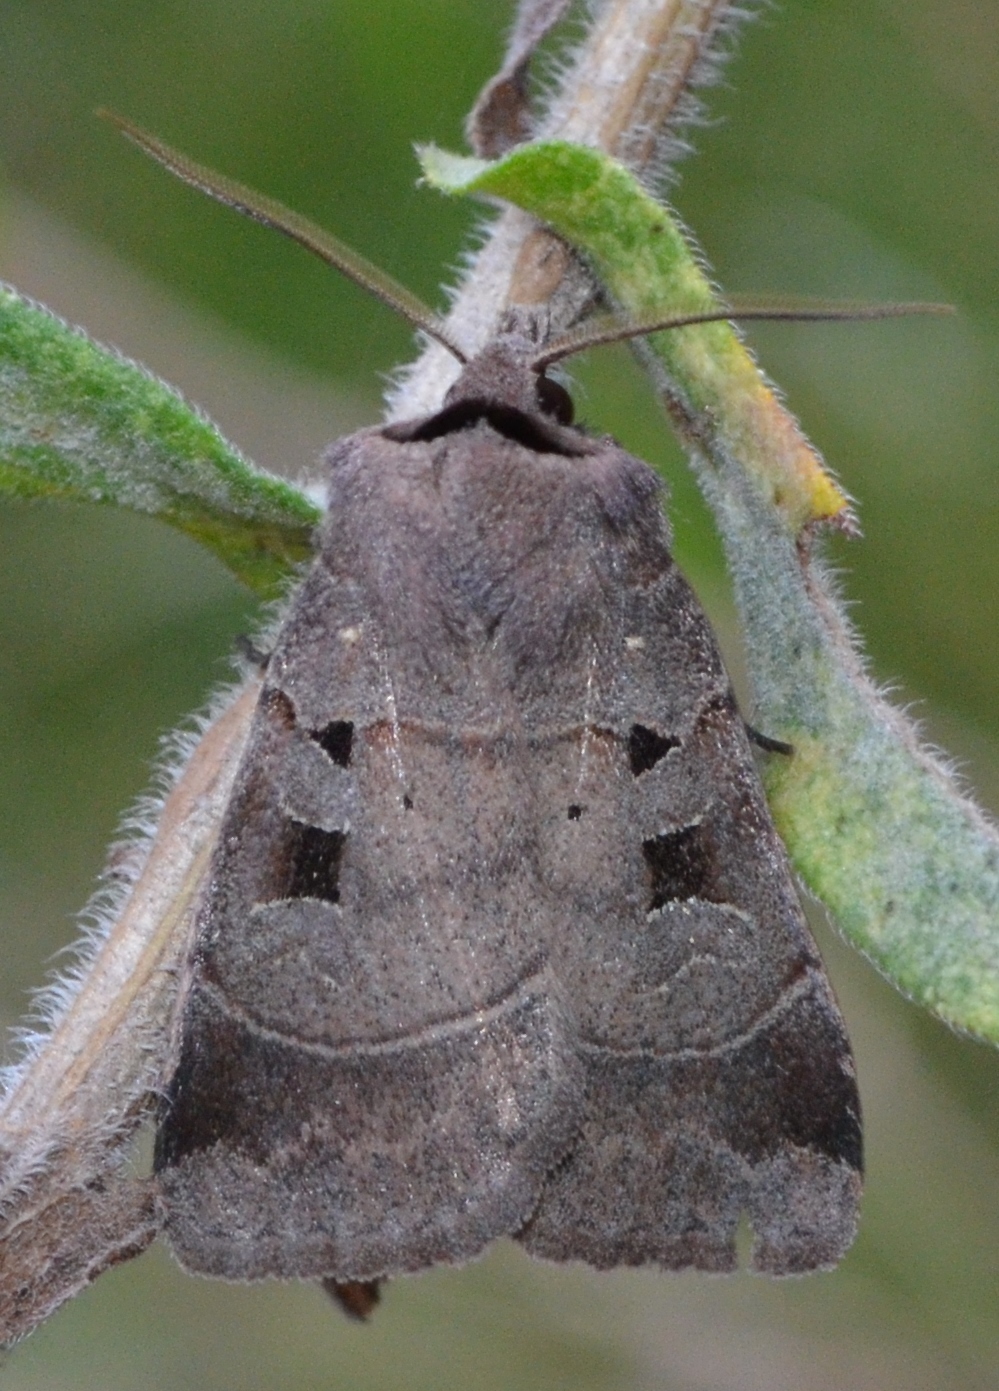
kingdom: Animalia
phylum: Arthropoda
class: Insecta
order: Lepidoptera
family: Noctuidae
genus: Agnorisma
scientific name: Agnorisma badinodis
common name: Pale-banded dart
